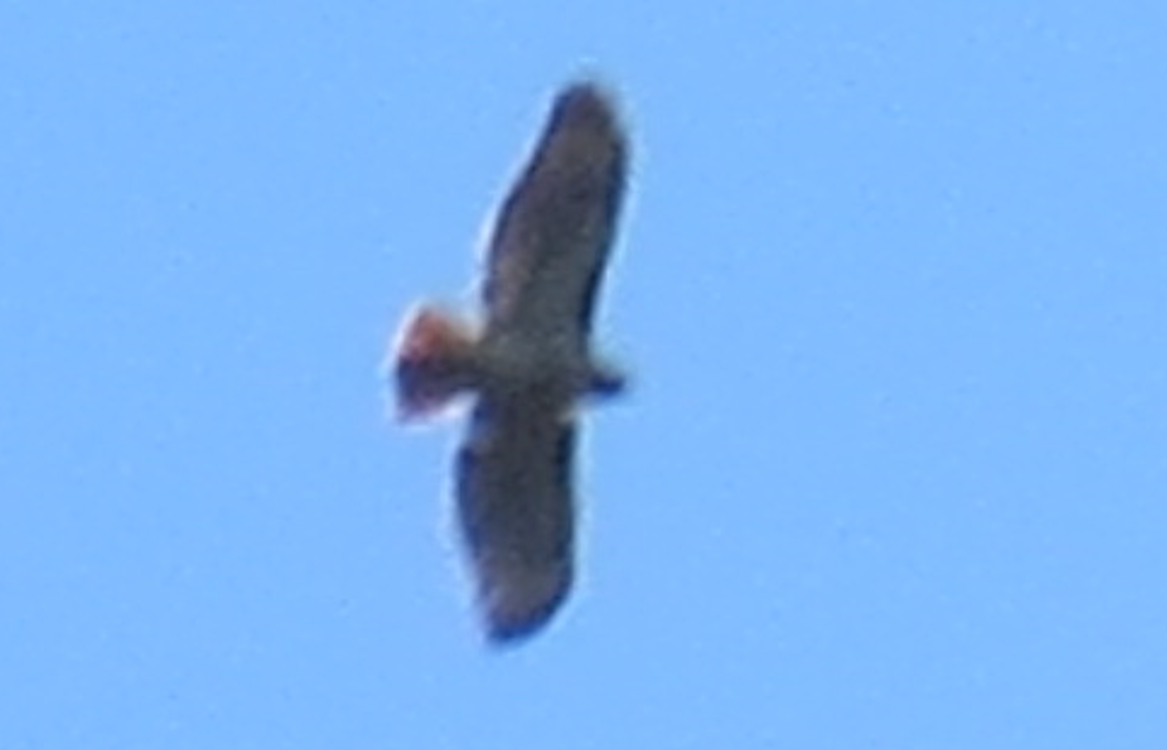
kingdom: Animalia
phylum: Chordata
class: Aves
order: Accipitriformes
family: Accipitridae
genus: Buteo
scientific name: Buteo jamaicensis
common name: Red-tailed hawk
